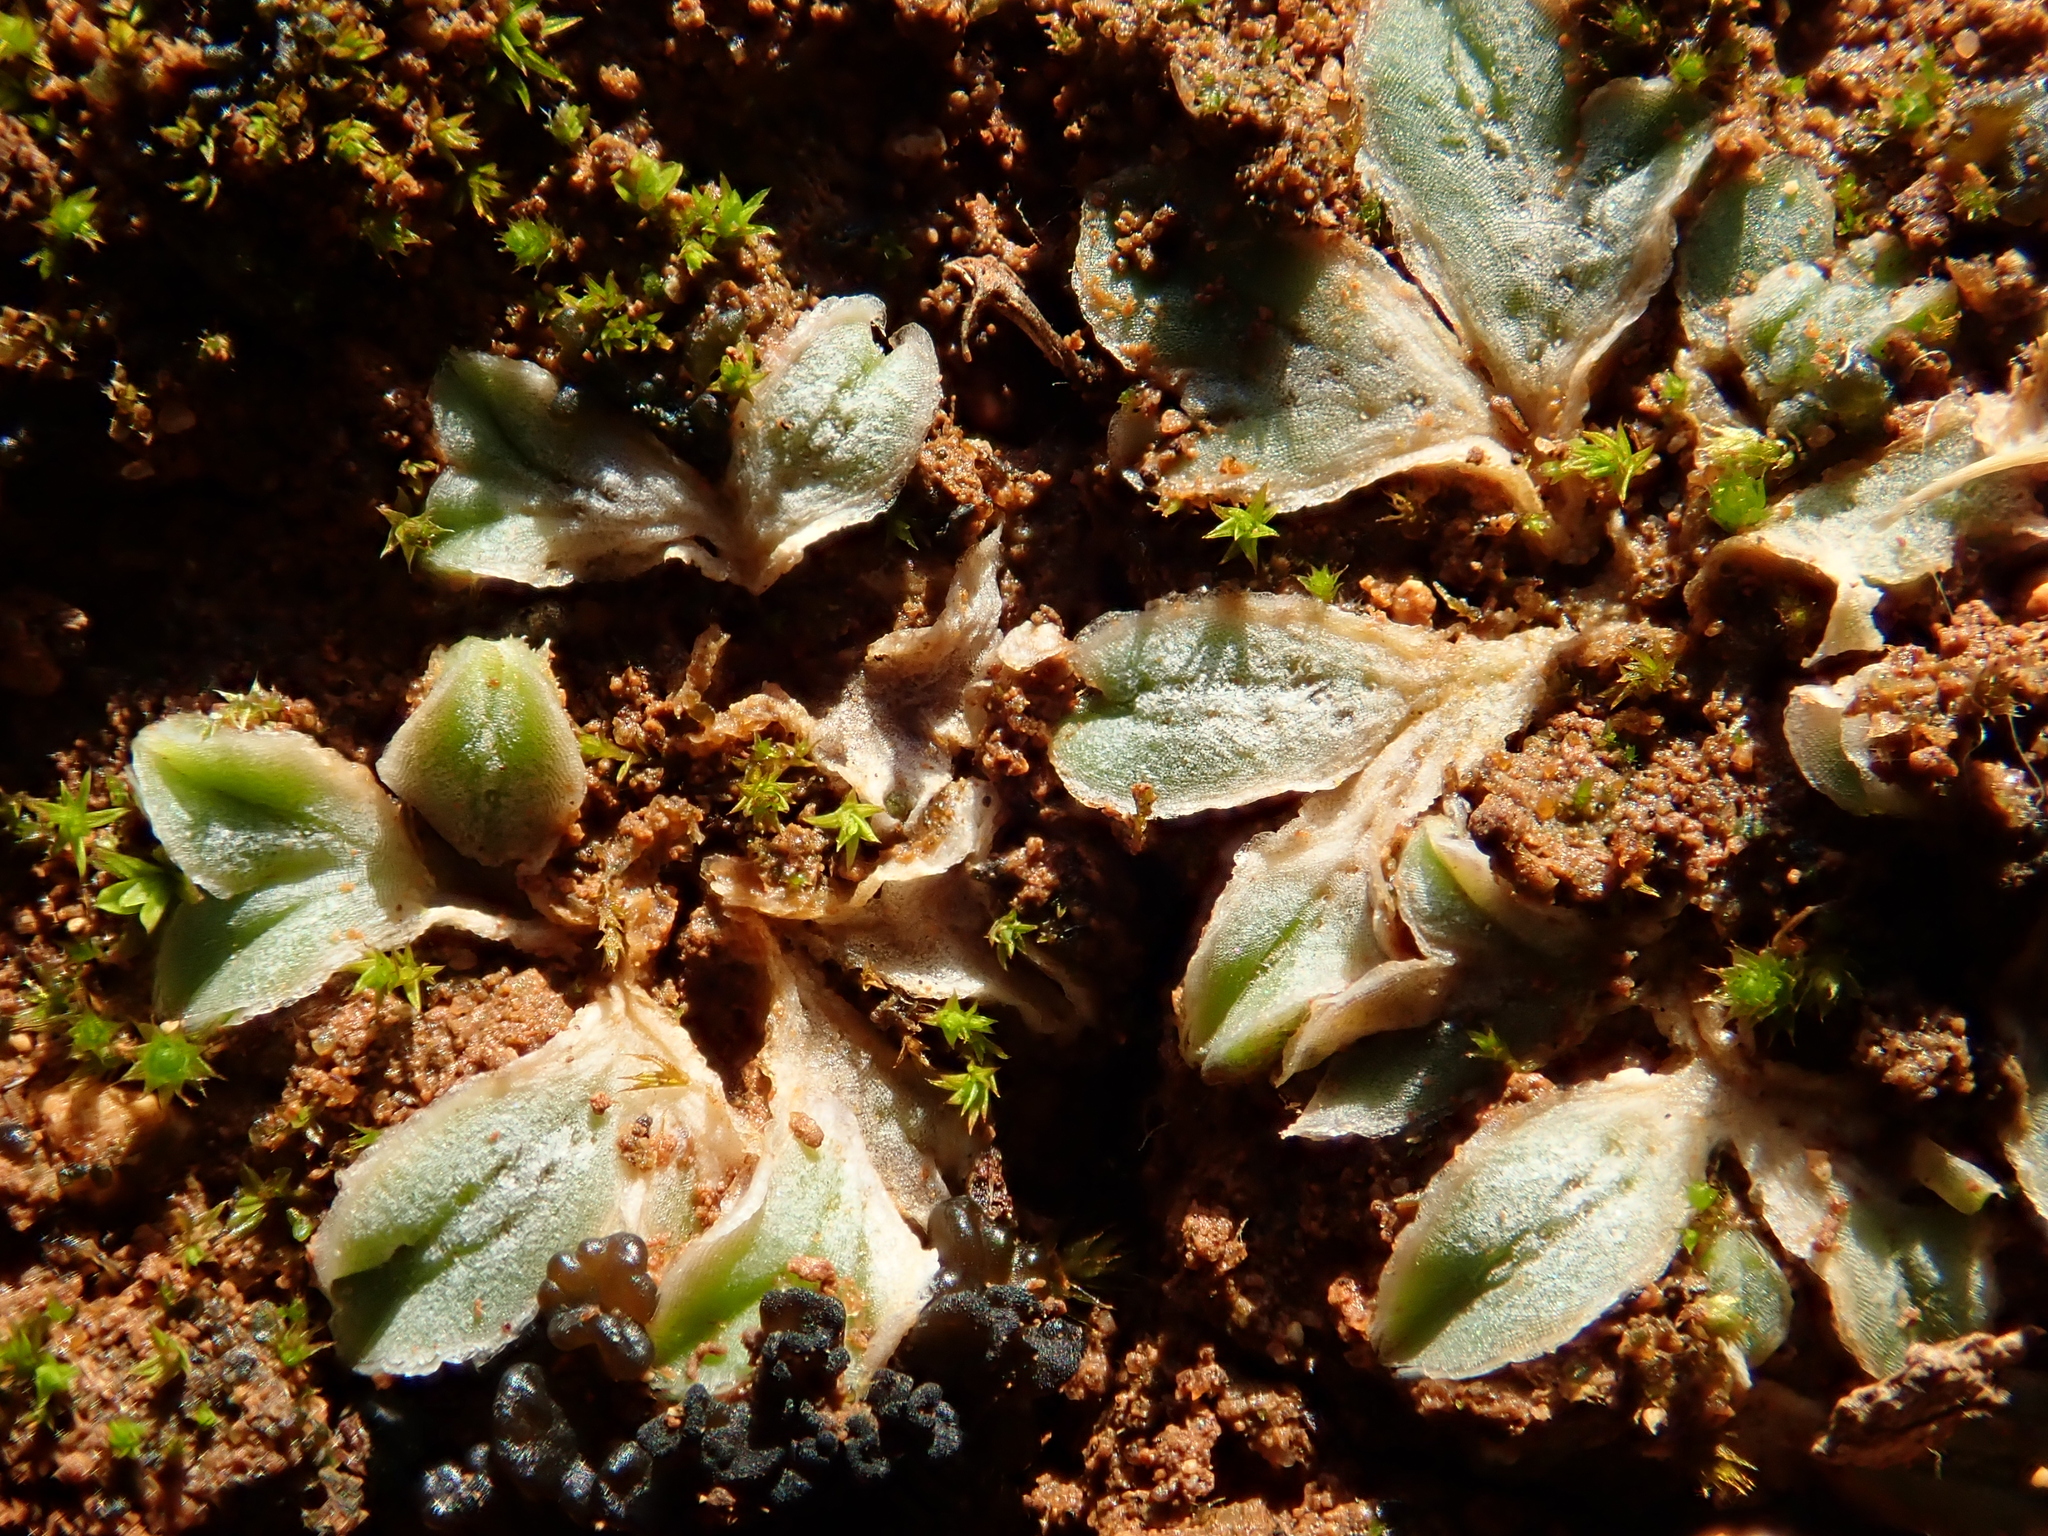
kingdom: Plantae
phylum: Marchantiophyta
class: Marchantiopsida
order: Marchantiales
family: Ricciaceae
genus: Riccia
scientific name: Riccia lamellosa
